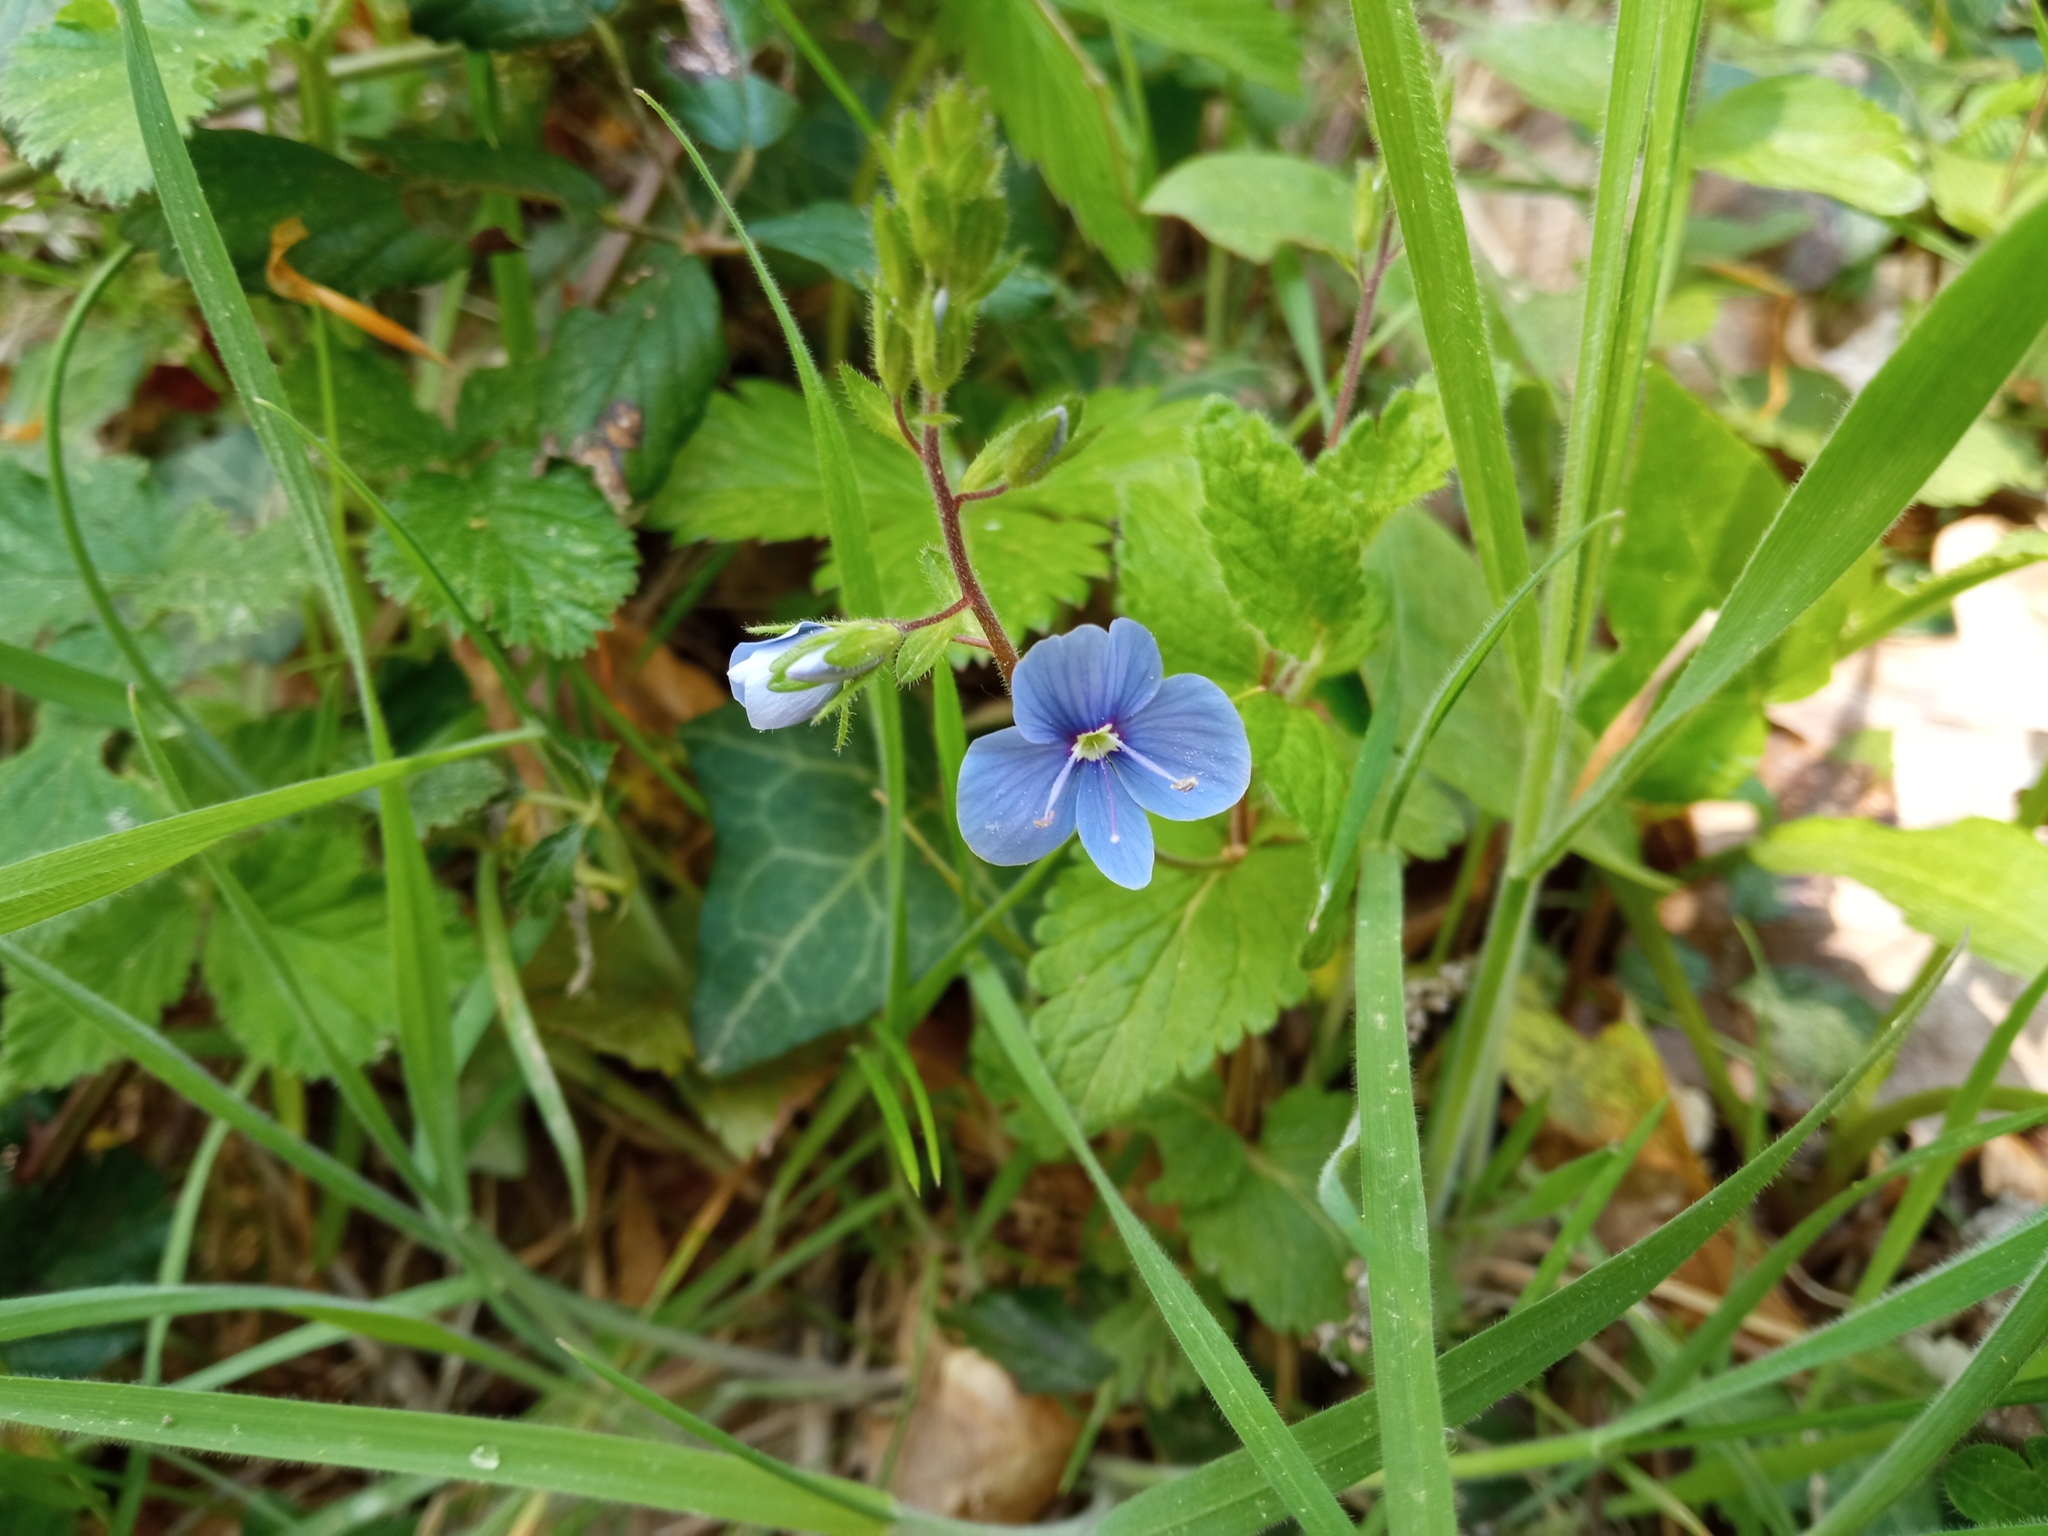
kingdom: Plantae
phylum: Tracheophyta
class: Magnoliopsida
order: Lamiales
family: Plantaginaceae
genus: Veronica
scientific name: Veronica chamaedrys
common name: Germander speedwell
